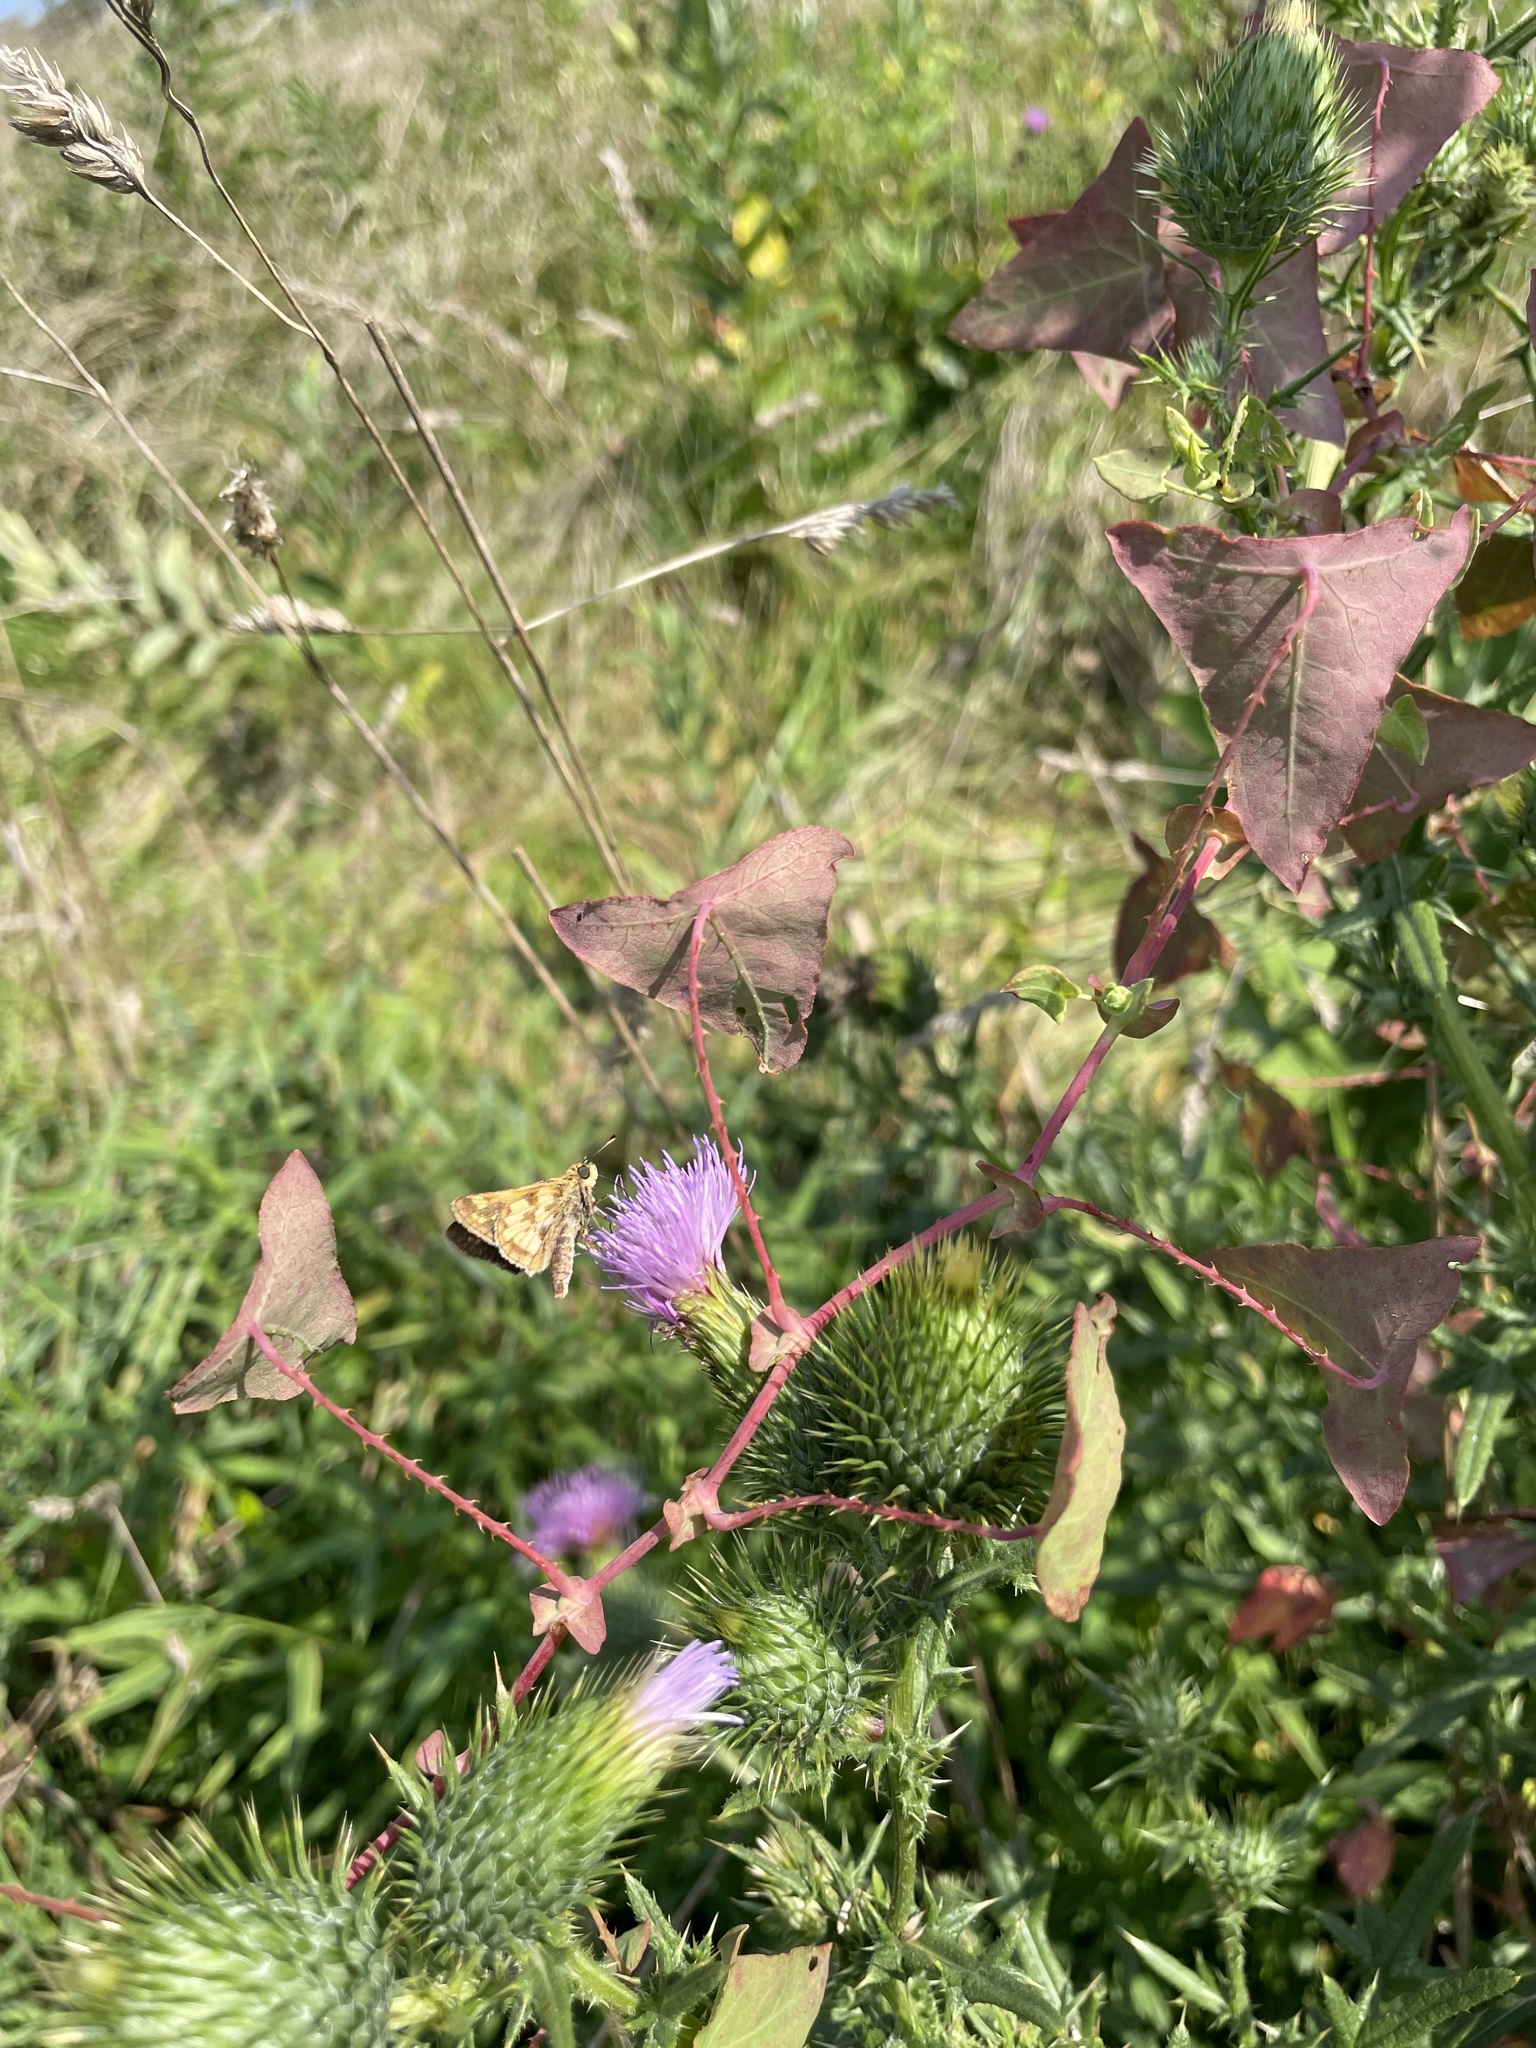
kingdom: Animalia
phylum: Arthropoda
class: Insecta
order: Lepidoptera
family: Hesperiidae
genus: Polites
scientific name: Polites coras
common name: Peck's skipper
